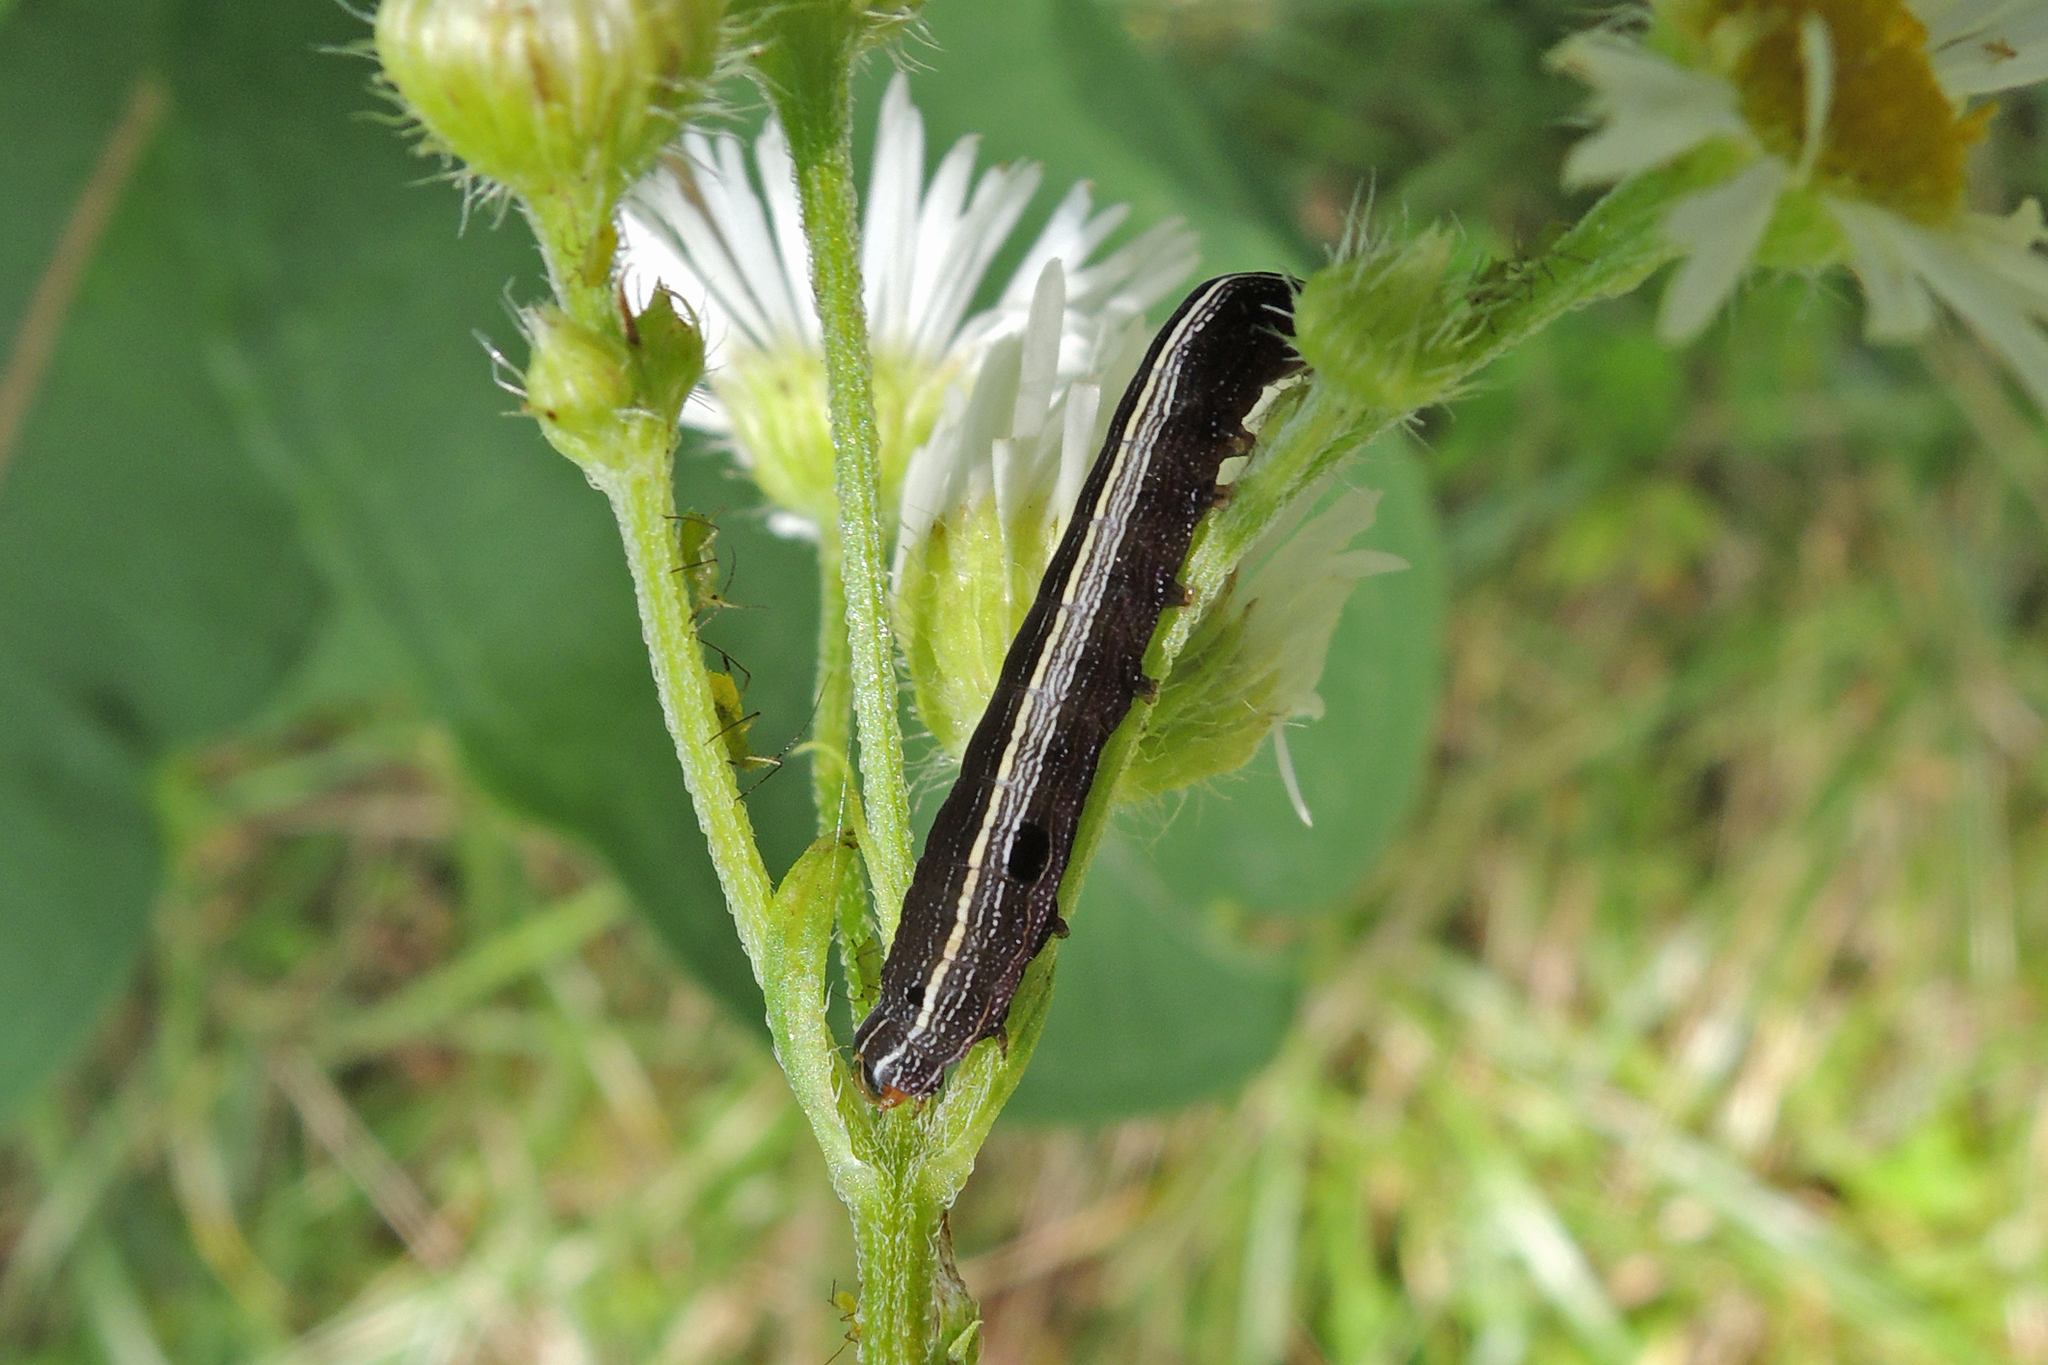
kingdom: Animalia
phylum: Arthropoda
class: Insecta
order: Lepidoptera
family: Noctuidae
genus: Spodoptera
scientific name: Spodoptera ornithogalli
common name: Yellow-striped armyworm
